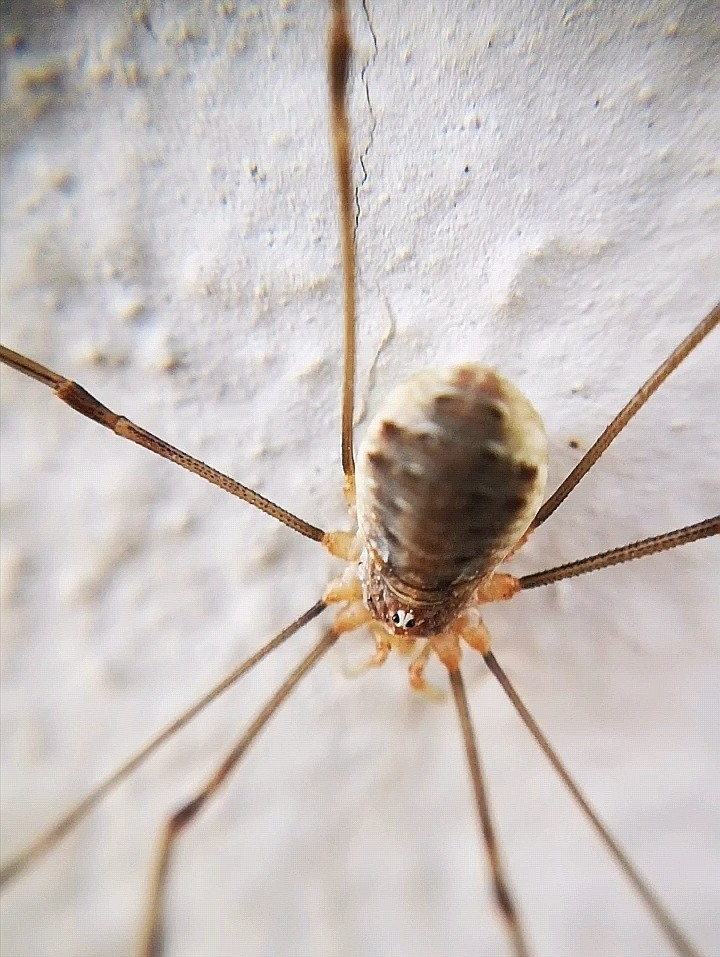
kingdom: Animalia
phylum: Arthropoda
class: Arachnida
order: Opiliones
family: Phalangiidae
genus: Opilio
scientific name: Opilio canestrinii
